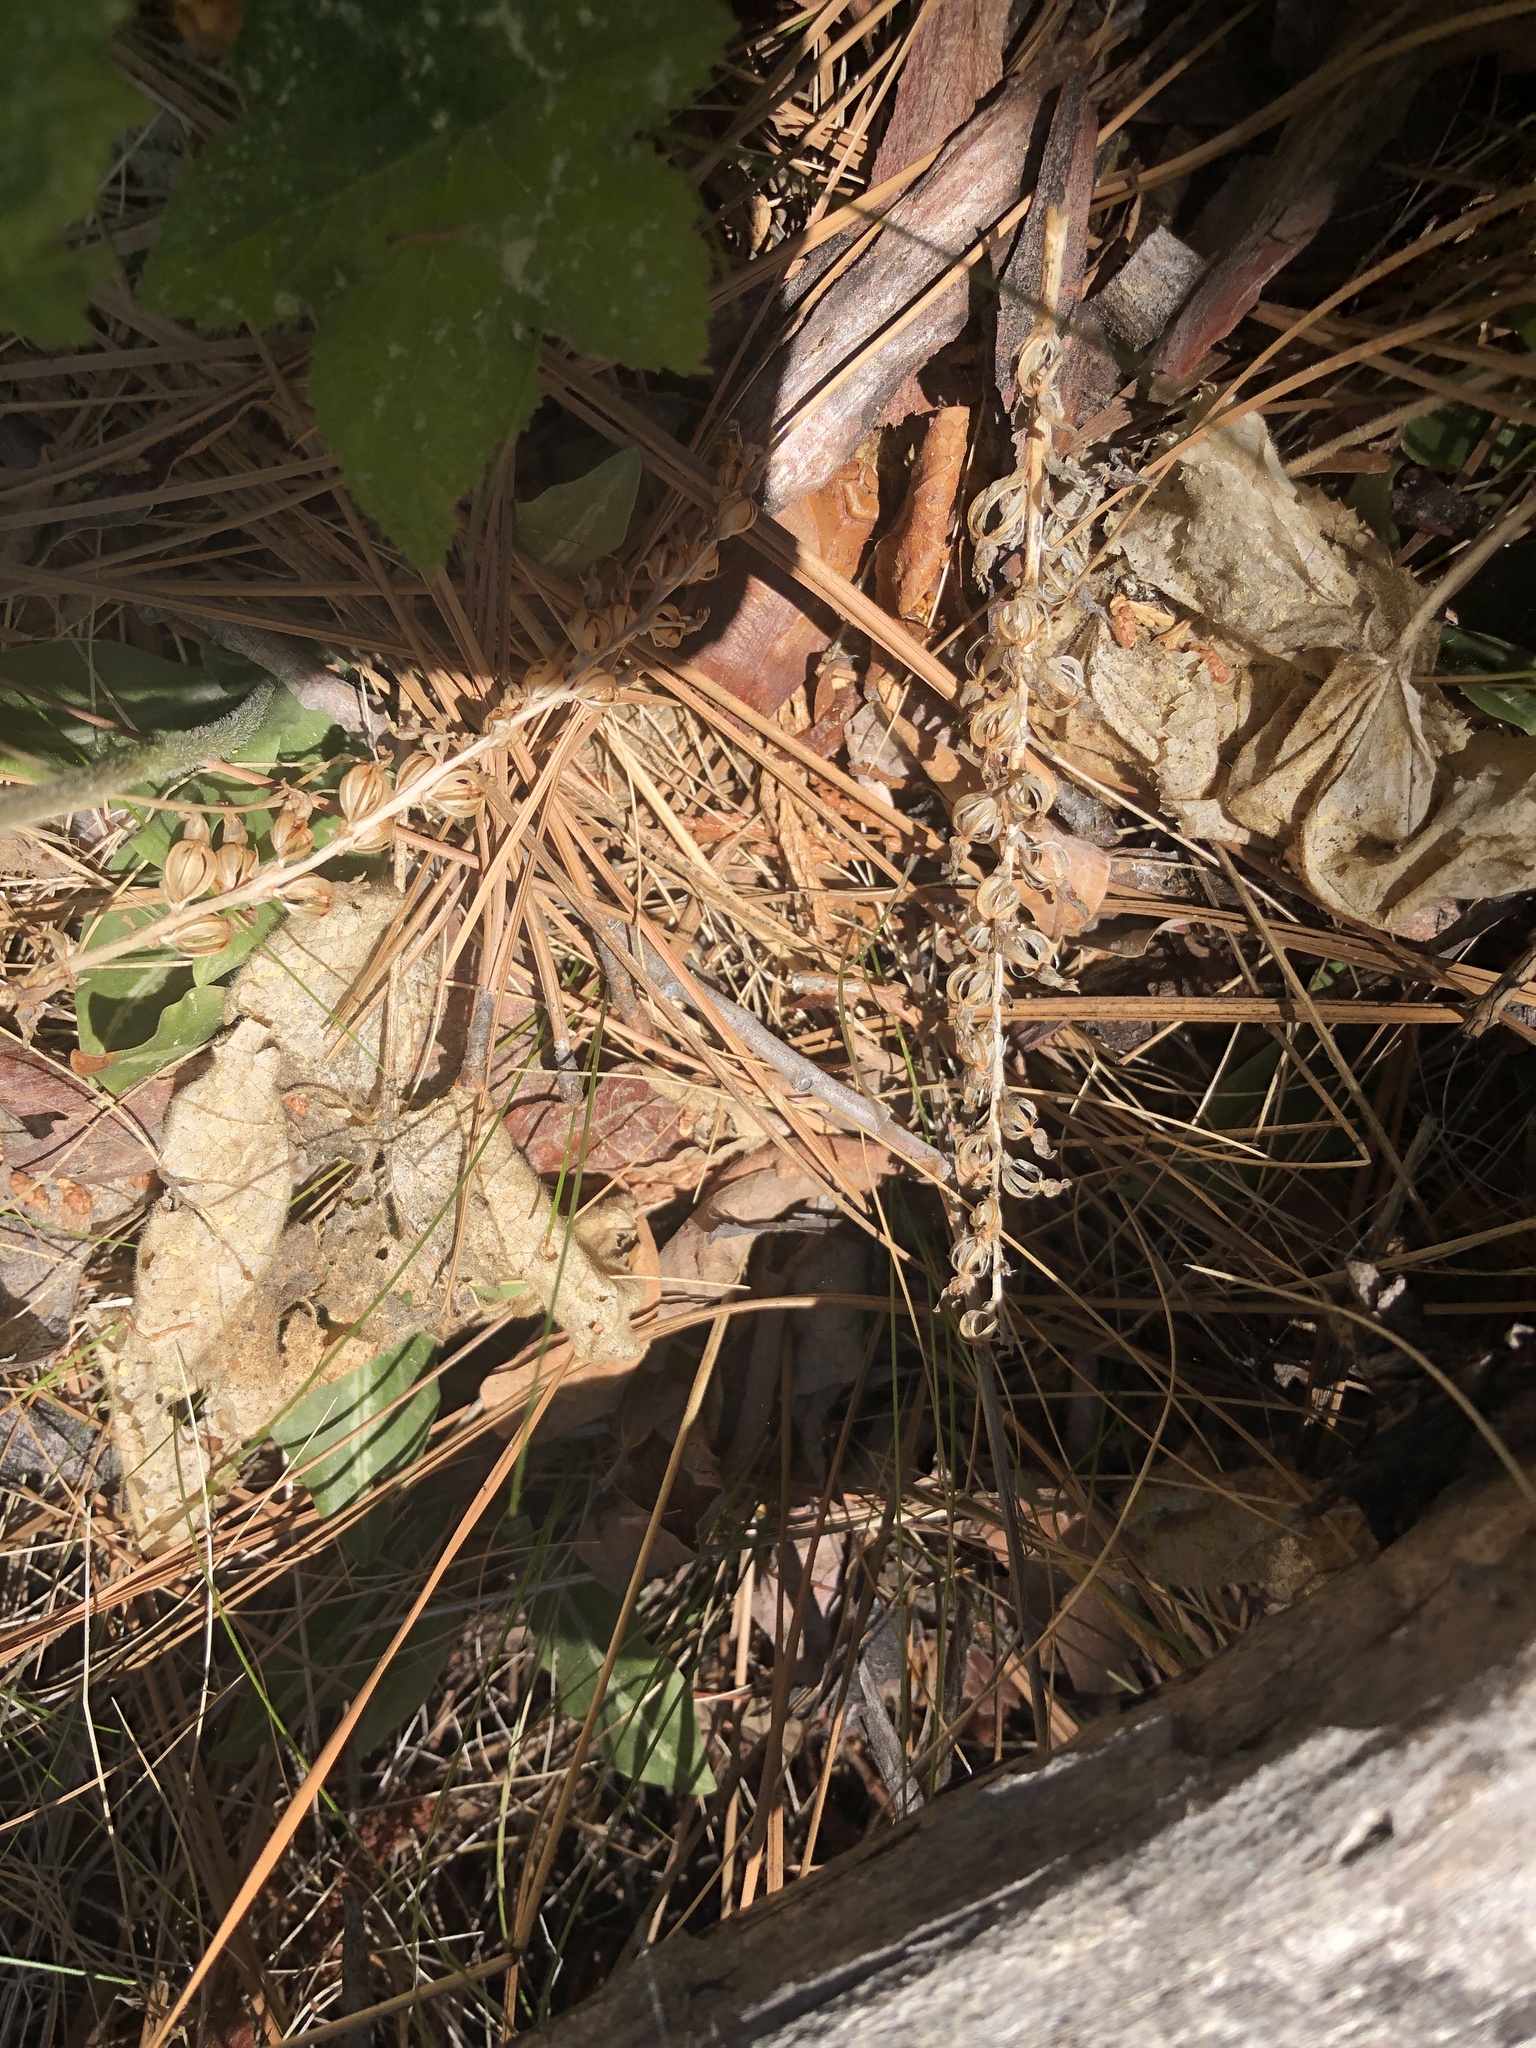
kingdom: Plantae
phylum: Tracheophyta
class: Liliopsida
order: Asparagales
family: Orchidaceae
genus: Goodyera
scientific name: Goodyera oblongifolia
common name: Giant rattlesnake-plantain
